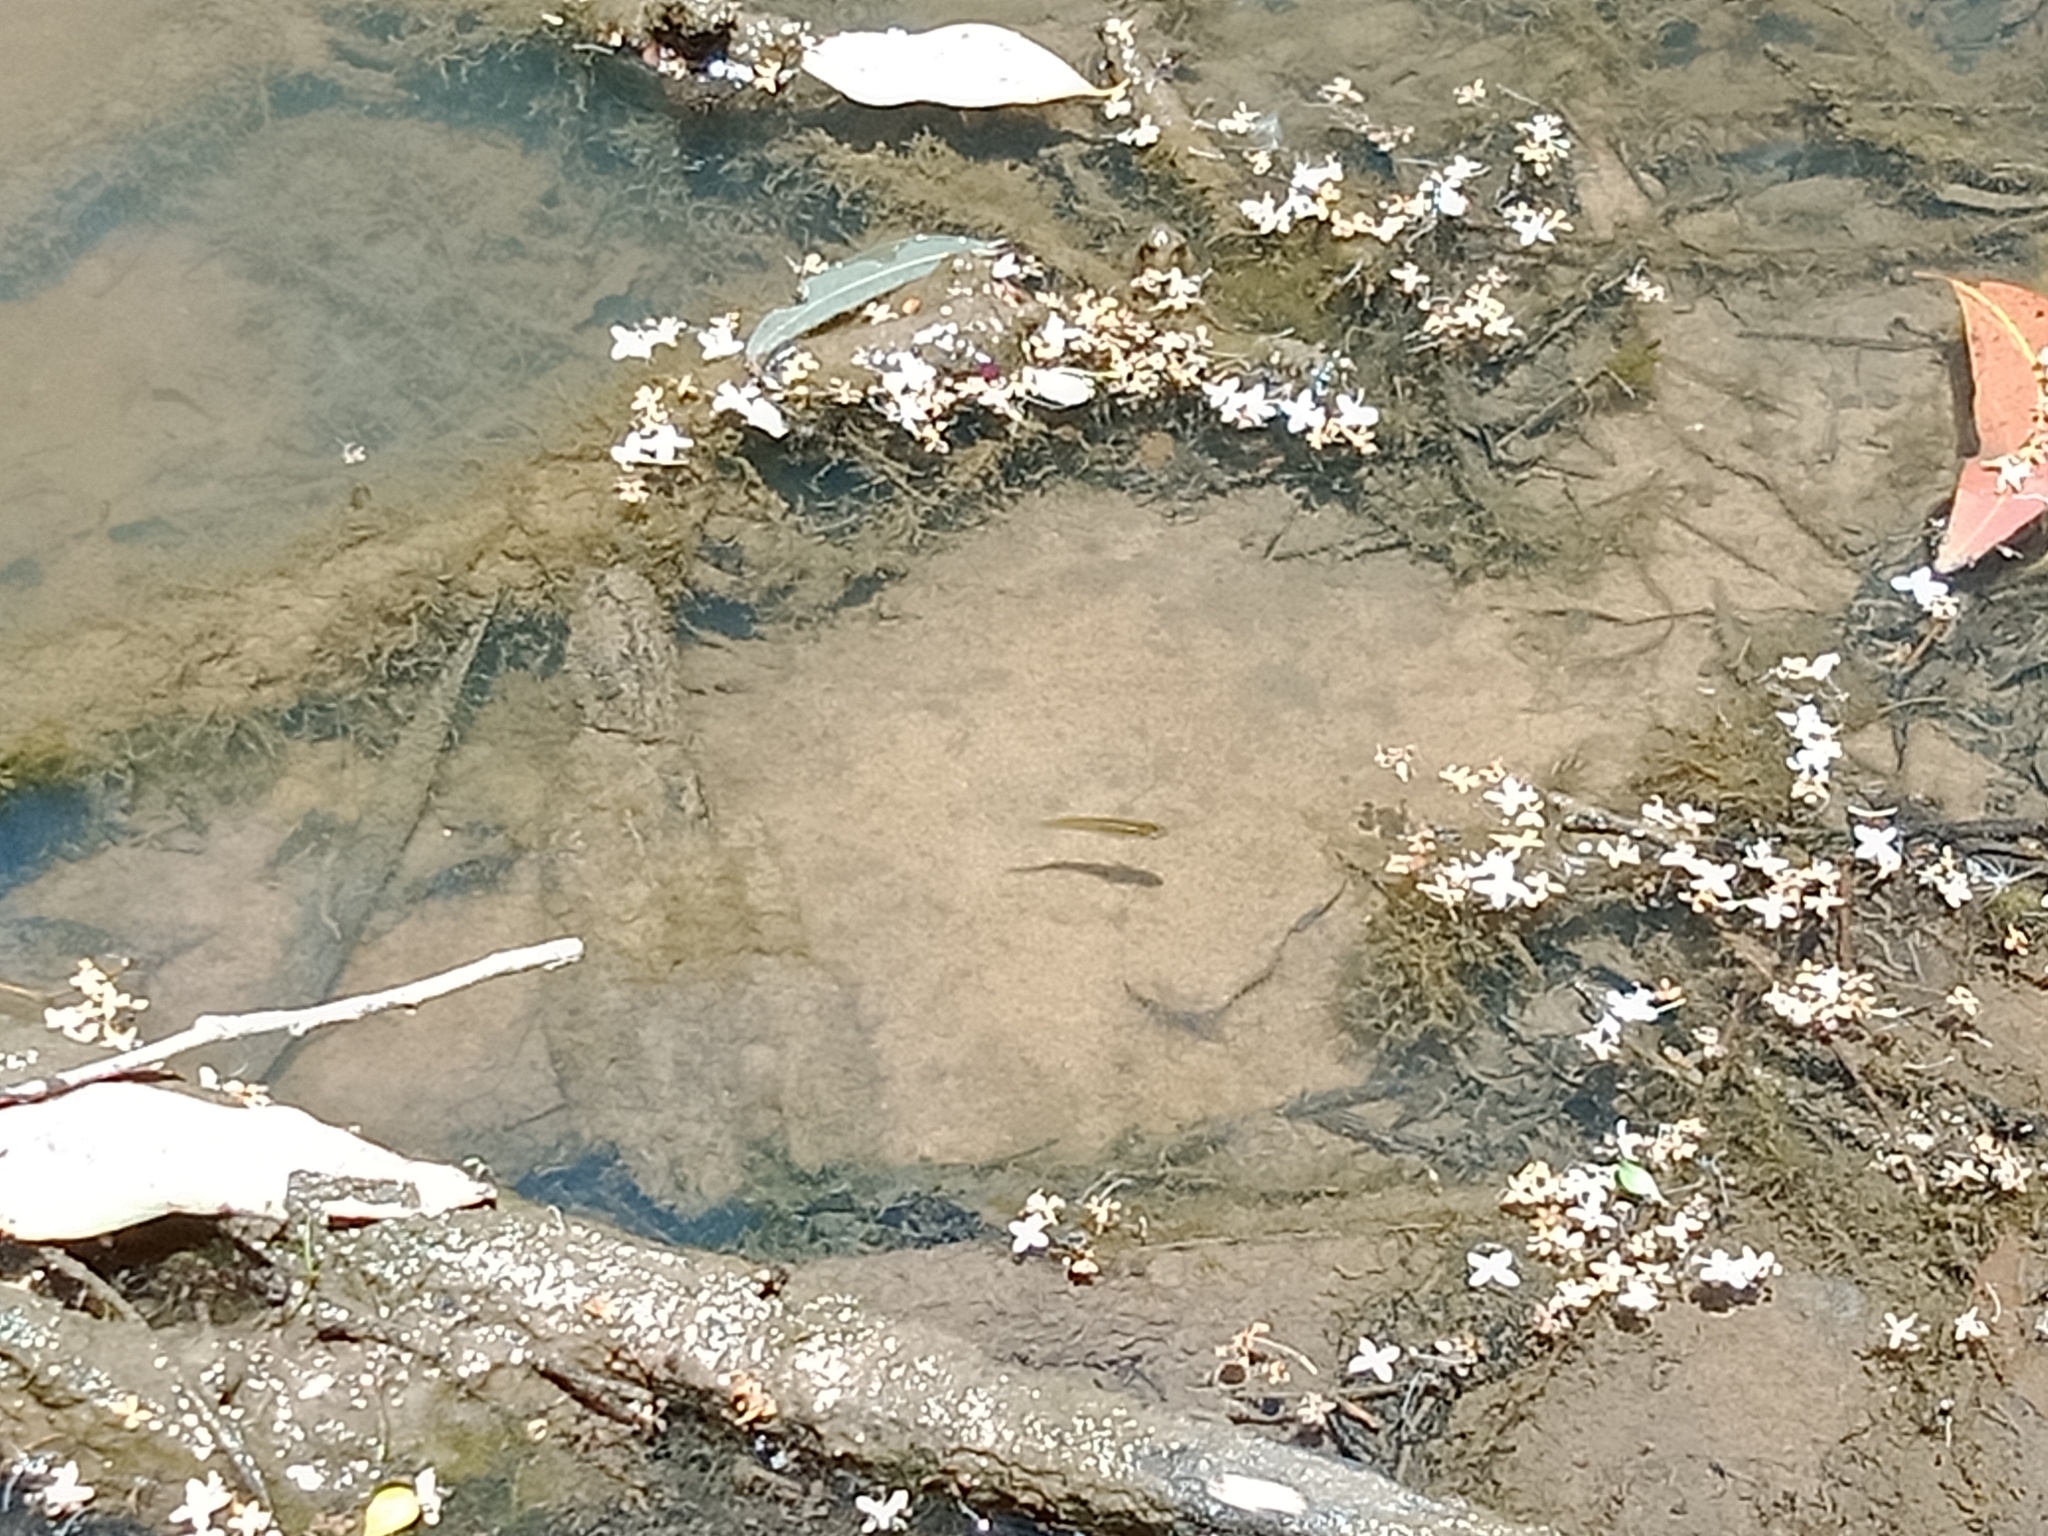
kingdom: Animalia
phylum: Chordata
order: Cyprinodontiformes
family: Poeciliidae
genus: Gambusia
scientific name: Gambusia holbrooki
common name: Eastern mosquitofish
